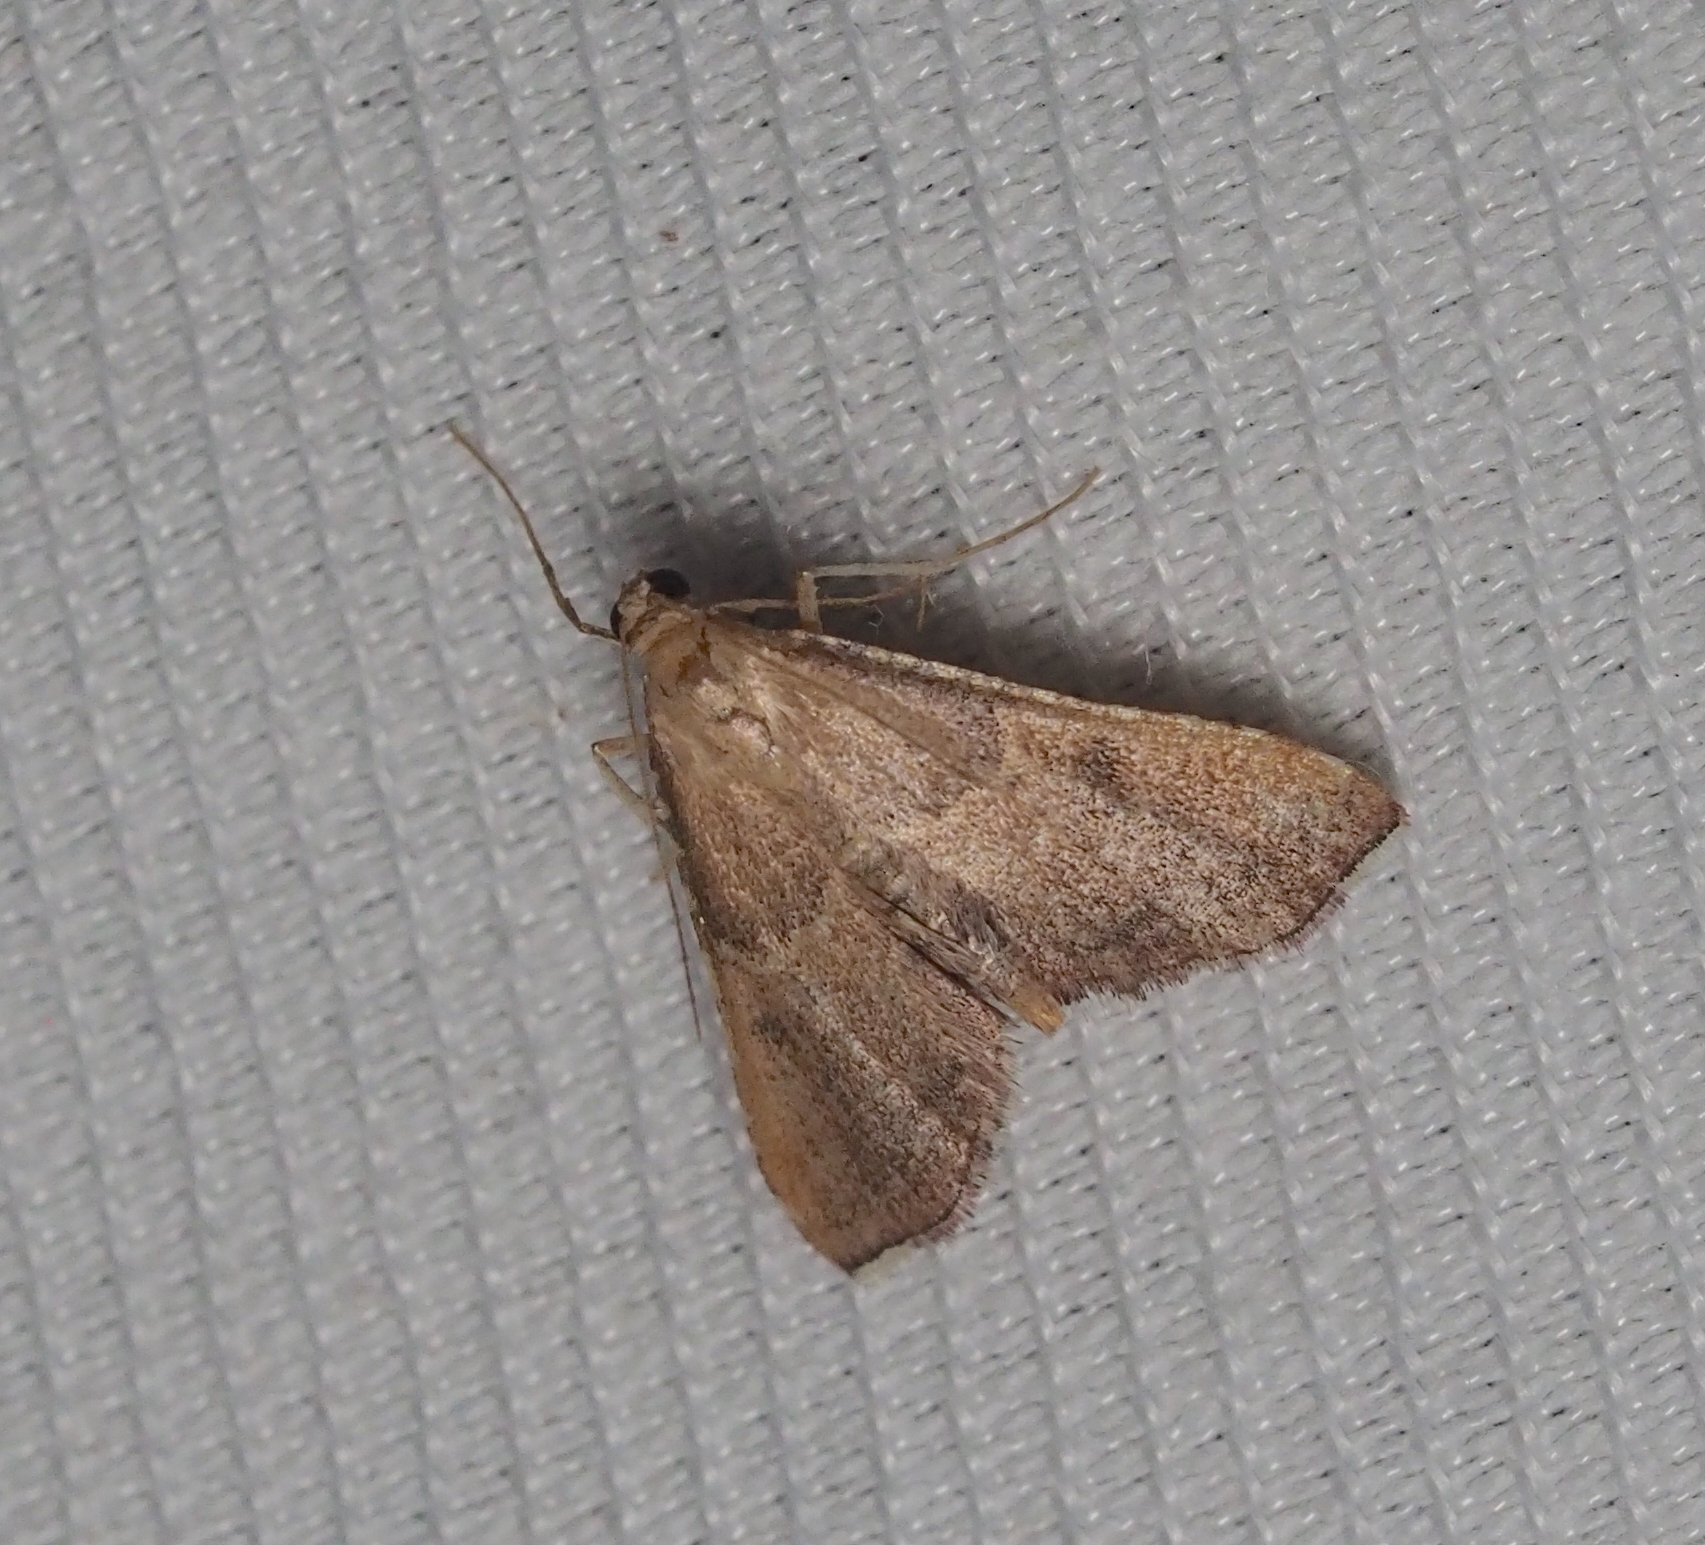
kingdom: Animalia
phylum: Arthropoda
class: Insecta
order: Lepidoptera
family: Pyralidae
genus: Endotricha
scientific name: Endotricha flammealis
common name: Rosy tabby
